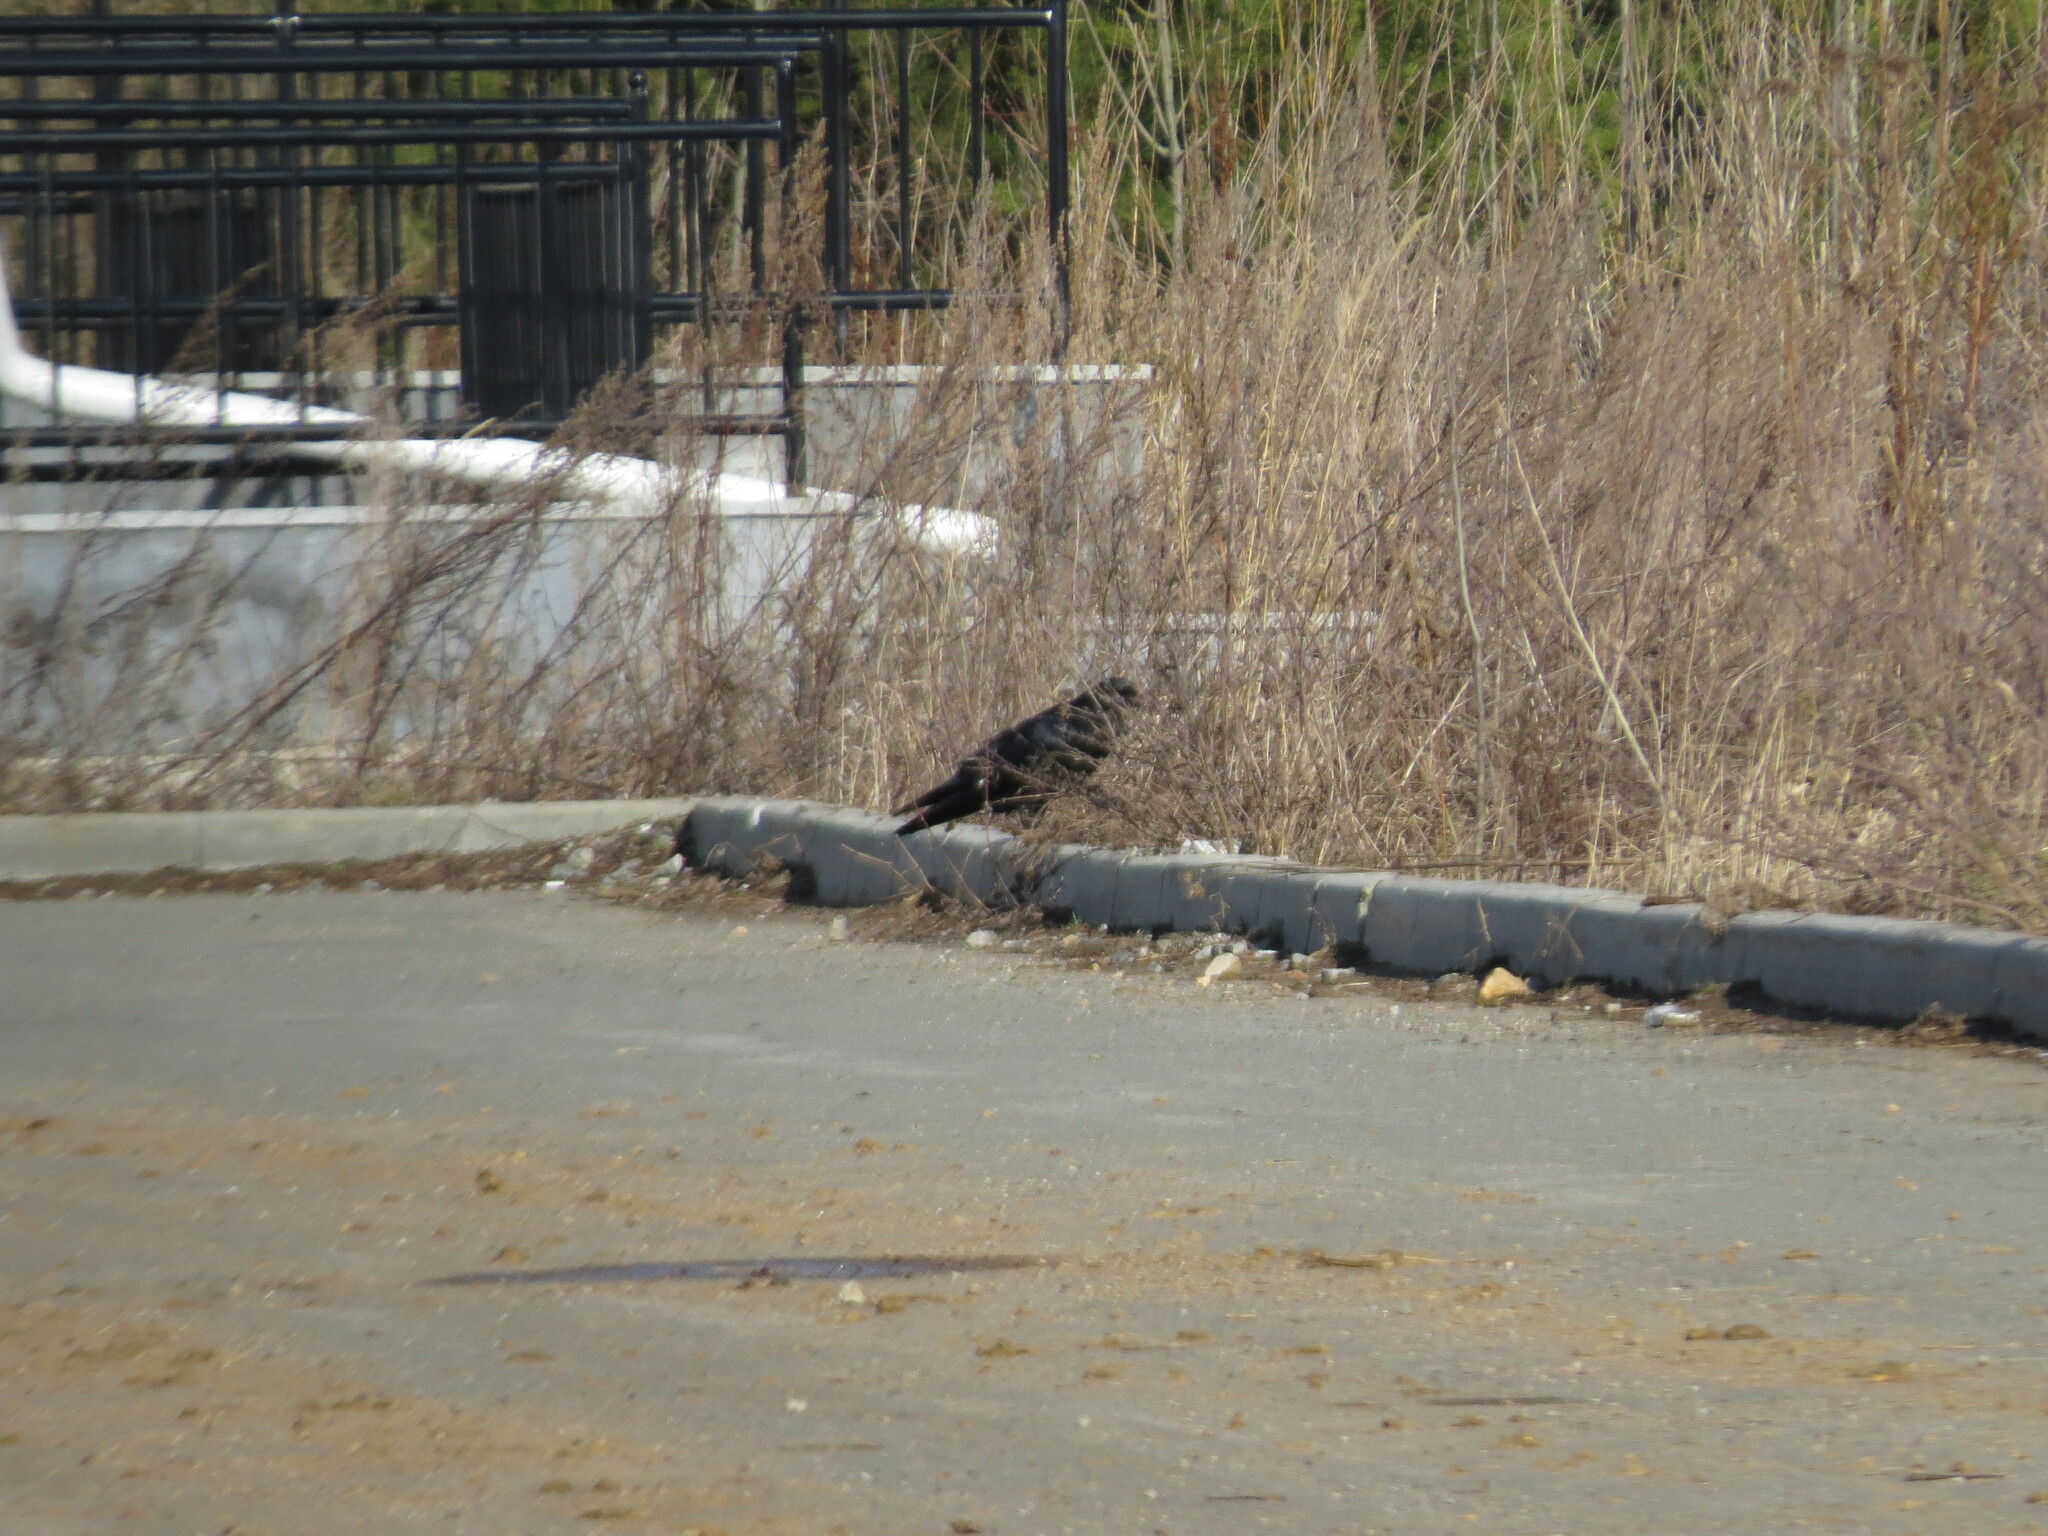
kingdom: Animalia
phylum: Chordata
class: Aves
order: Passeriformes
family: Corvidae
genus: Corvus
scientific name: Corvus corax
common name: Common raven
